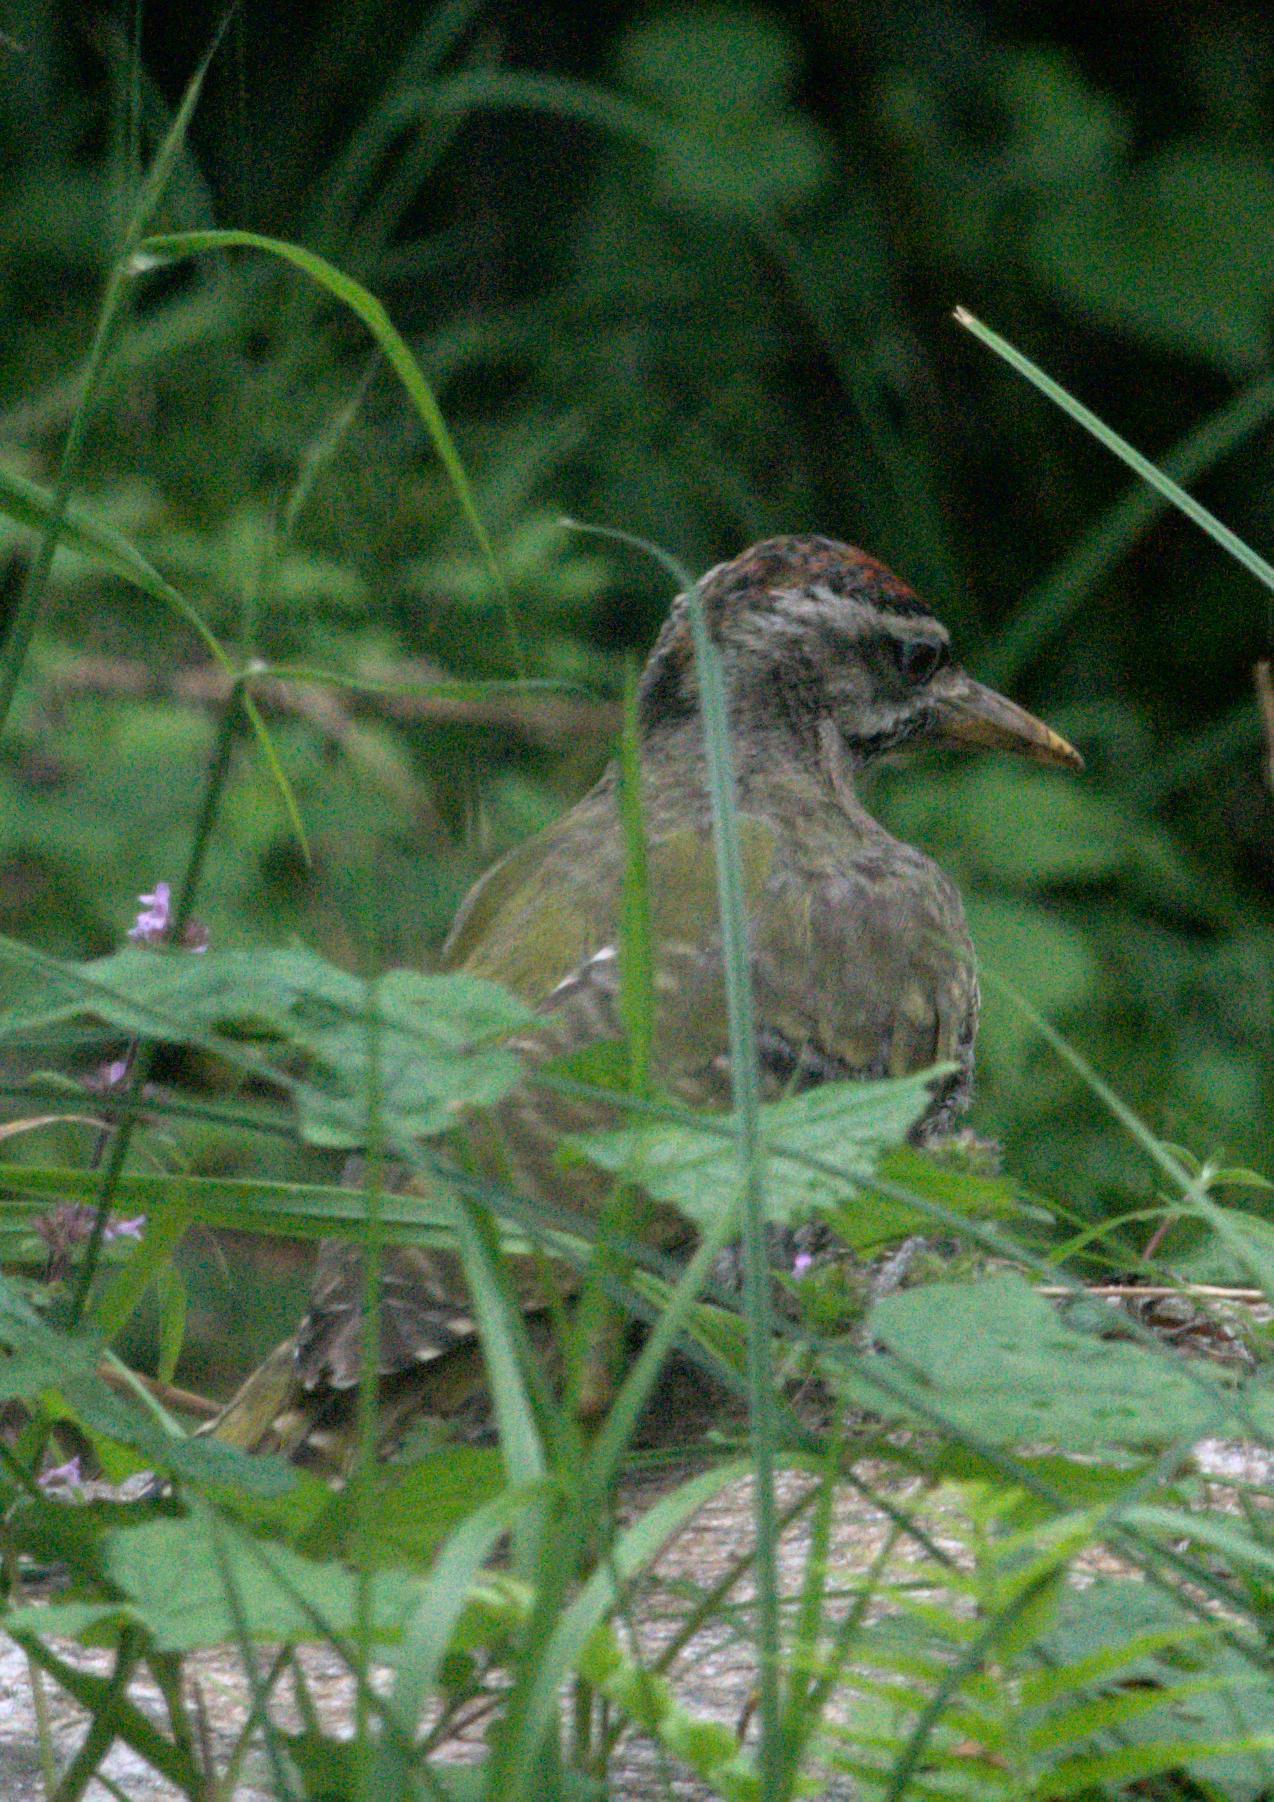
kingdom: Animalia
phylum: Chordata
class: Aves
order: Piciformes
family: Picidae
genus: Picus
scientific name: Picus squamatus
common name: Scaly-bellied woodpecker
